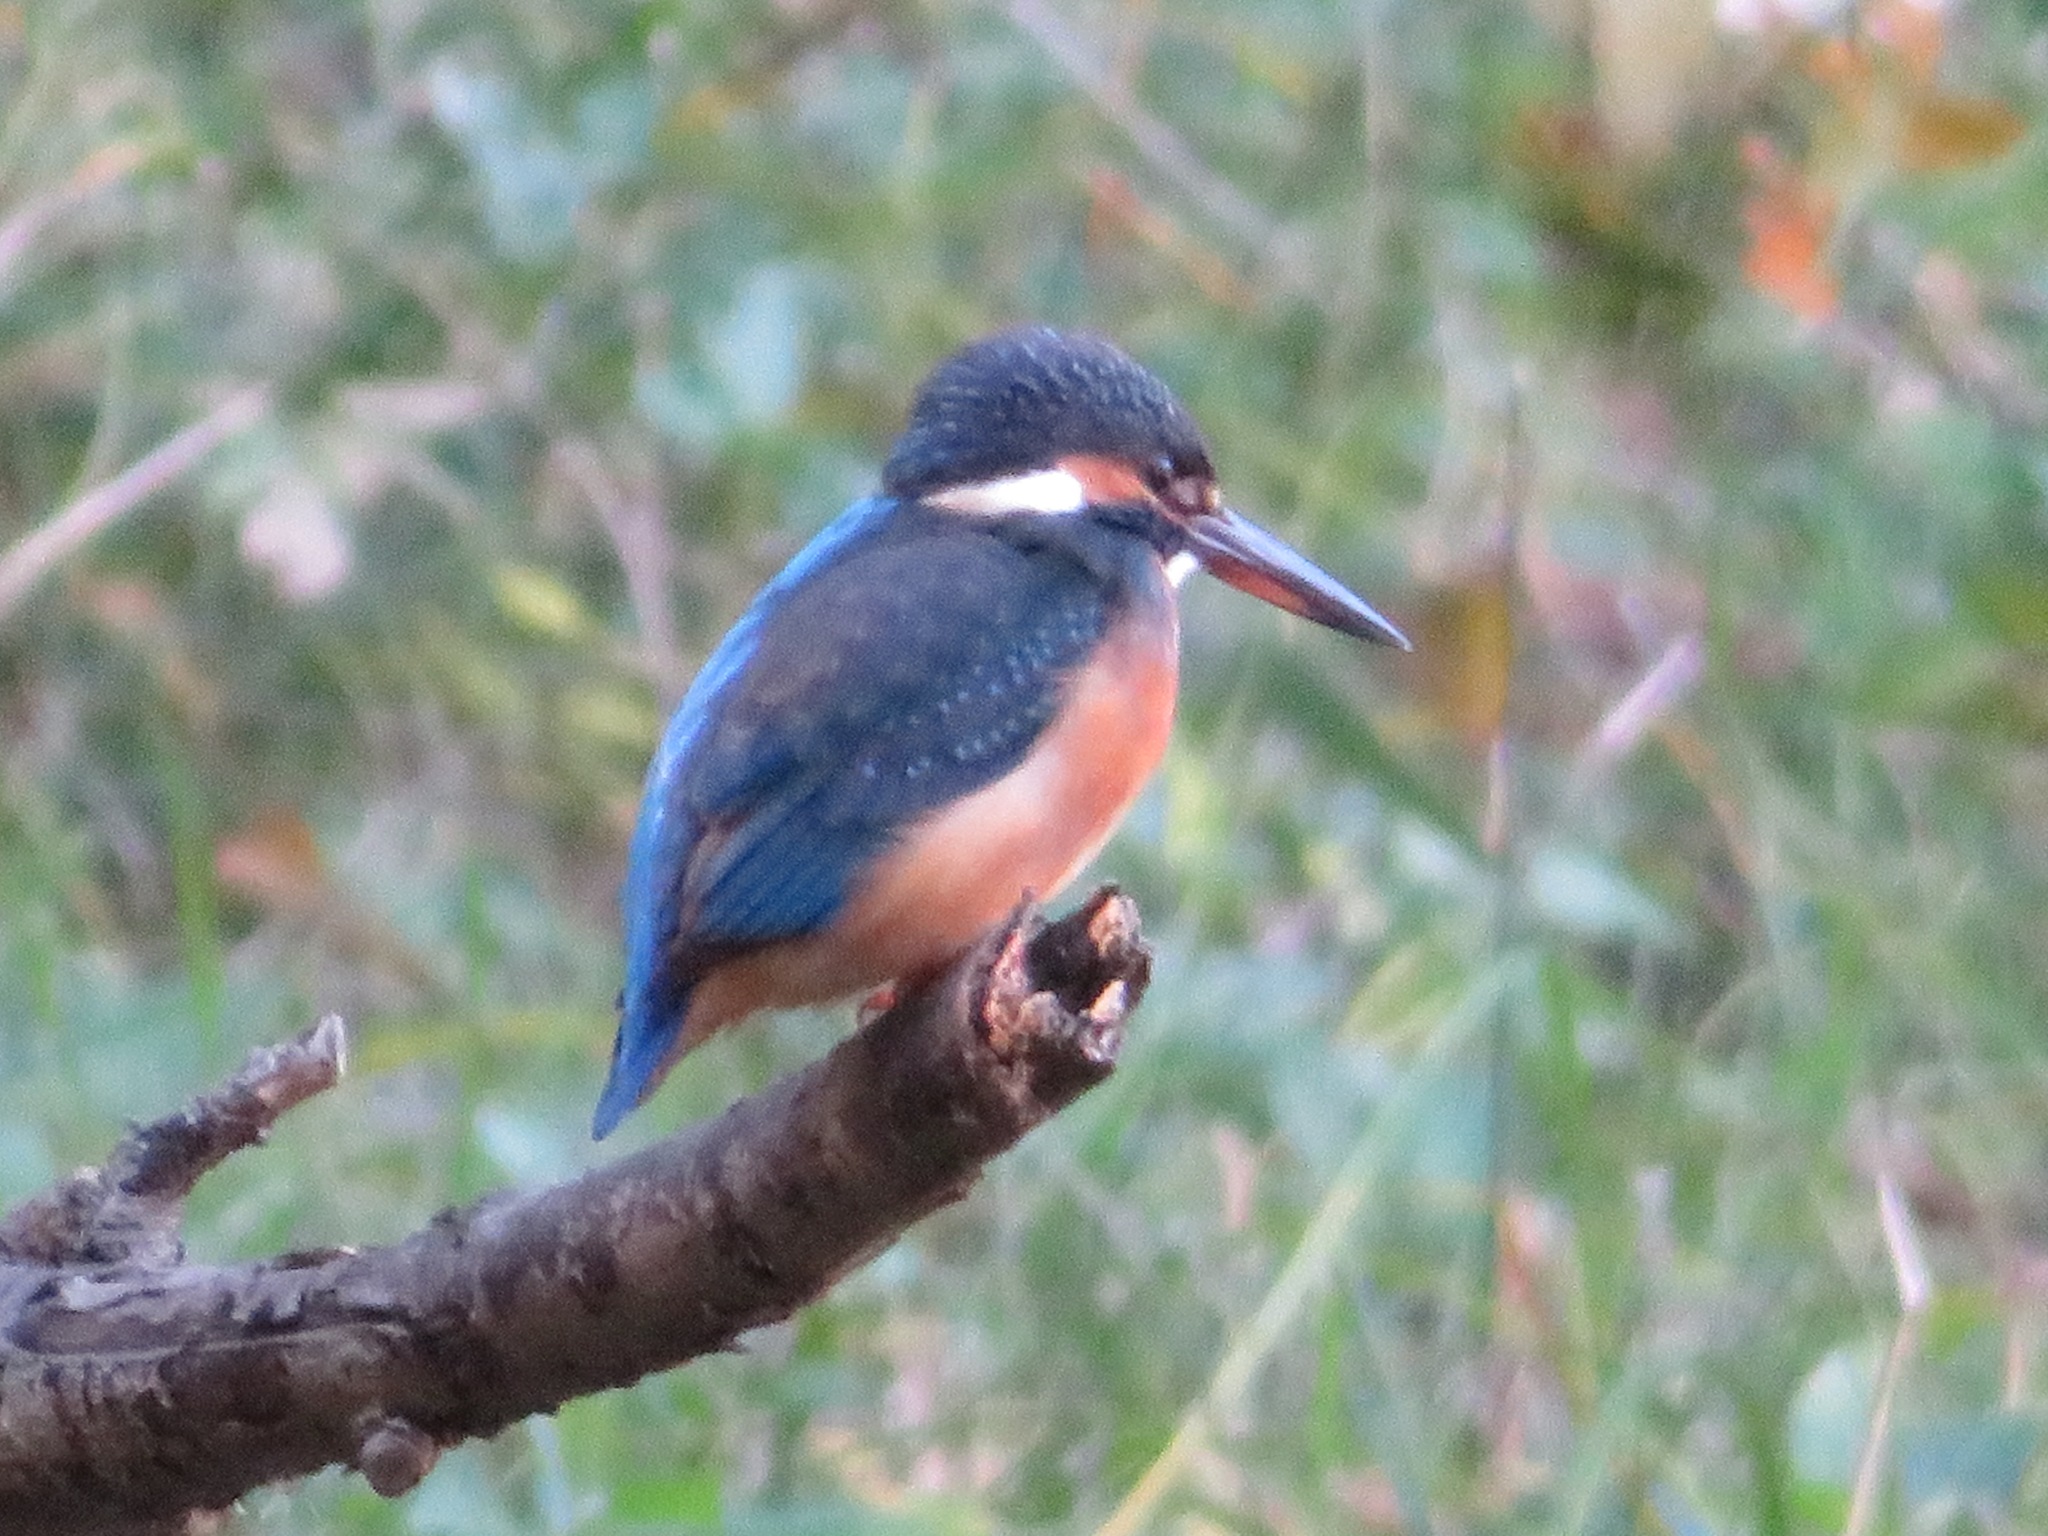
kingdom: Animalia
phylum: Chordata
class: Aves
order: Coraciiformes
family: Alcedinidae
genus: Alcedo
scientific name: Alcedo atthis
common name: Common kingfisher
